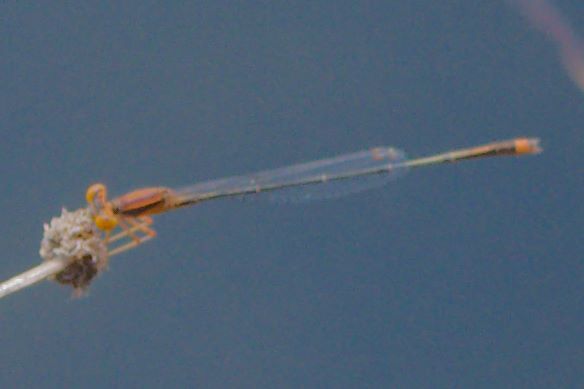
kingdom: Animalia
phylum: Arthropoda
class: Insecta
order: Odonata
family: Coenagrionidae
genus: Enallagma
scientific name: Enallagma pollutum
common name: Florida bluet
